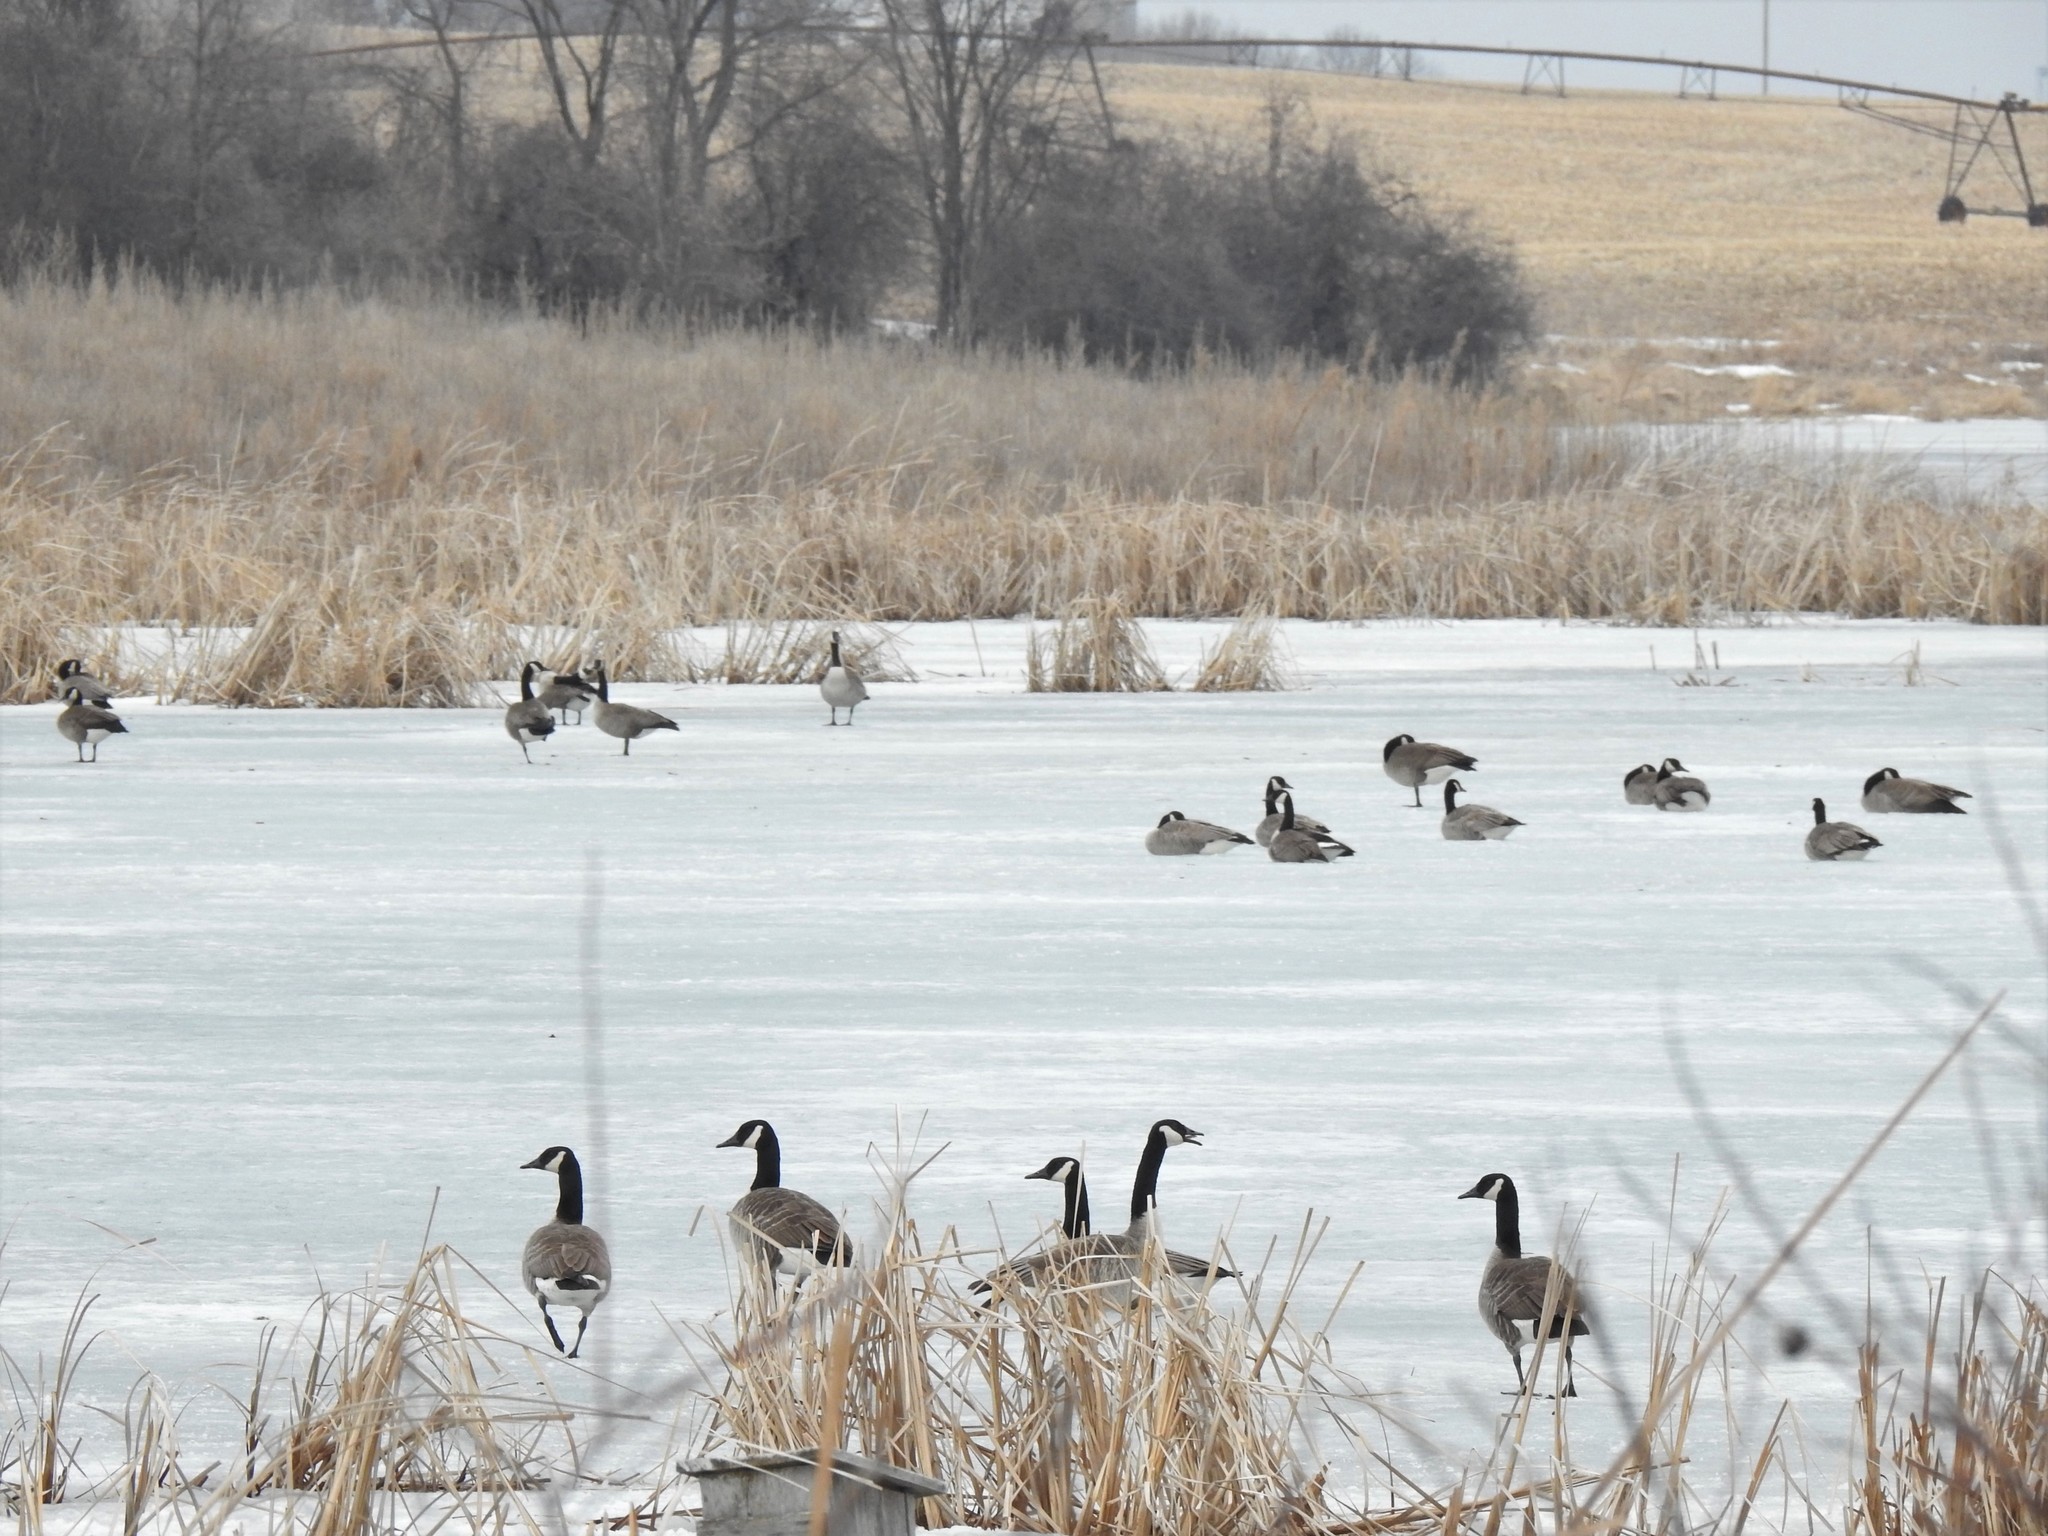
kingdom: Animalia
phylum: Chordata
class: Aves
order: Anseriformes
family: Anatidae
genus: Branta
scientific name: Branta canadensis
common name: Canada goose
